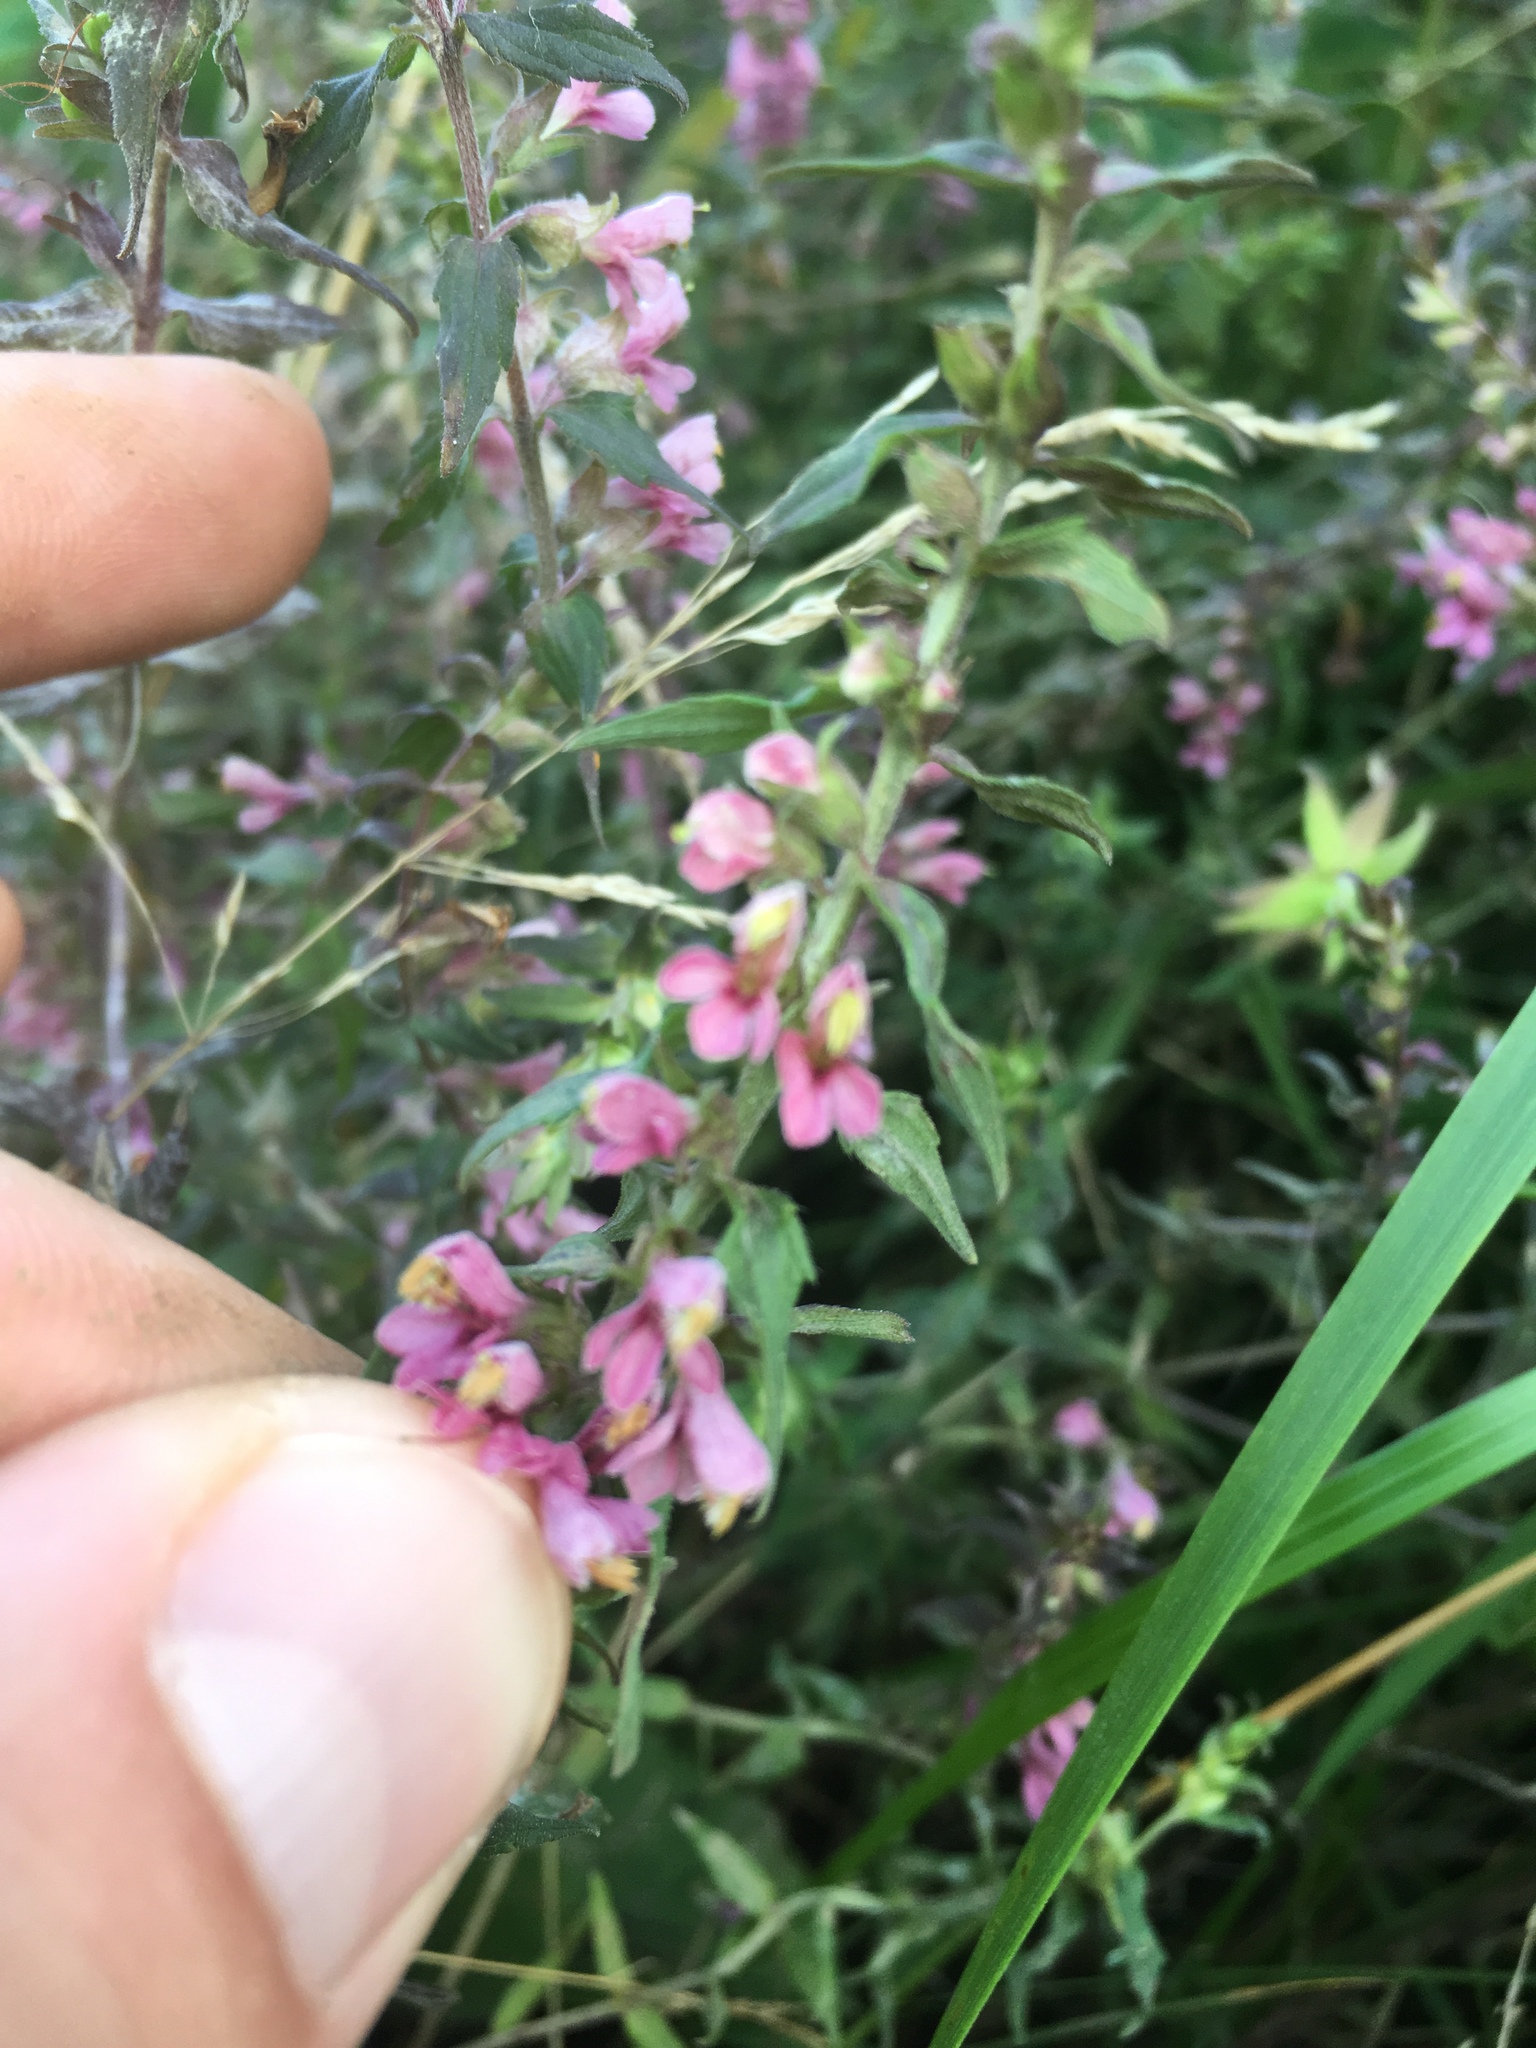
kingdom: Plantae
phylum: Tracheophyta
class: Magnoliopsida
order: Lamiales
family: Orobanchaceae
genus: Odontites
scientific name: Odontites vulgaris
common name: Broomrape
